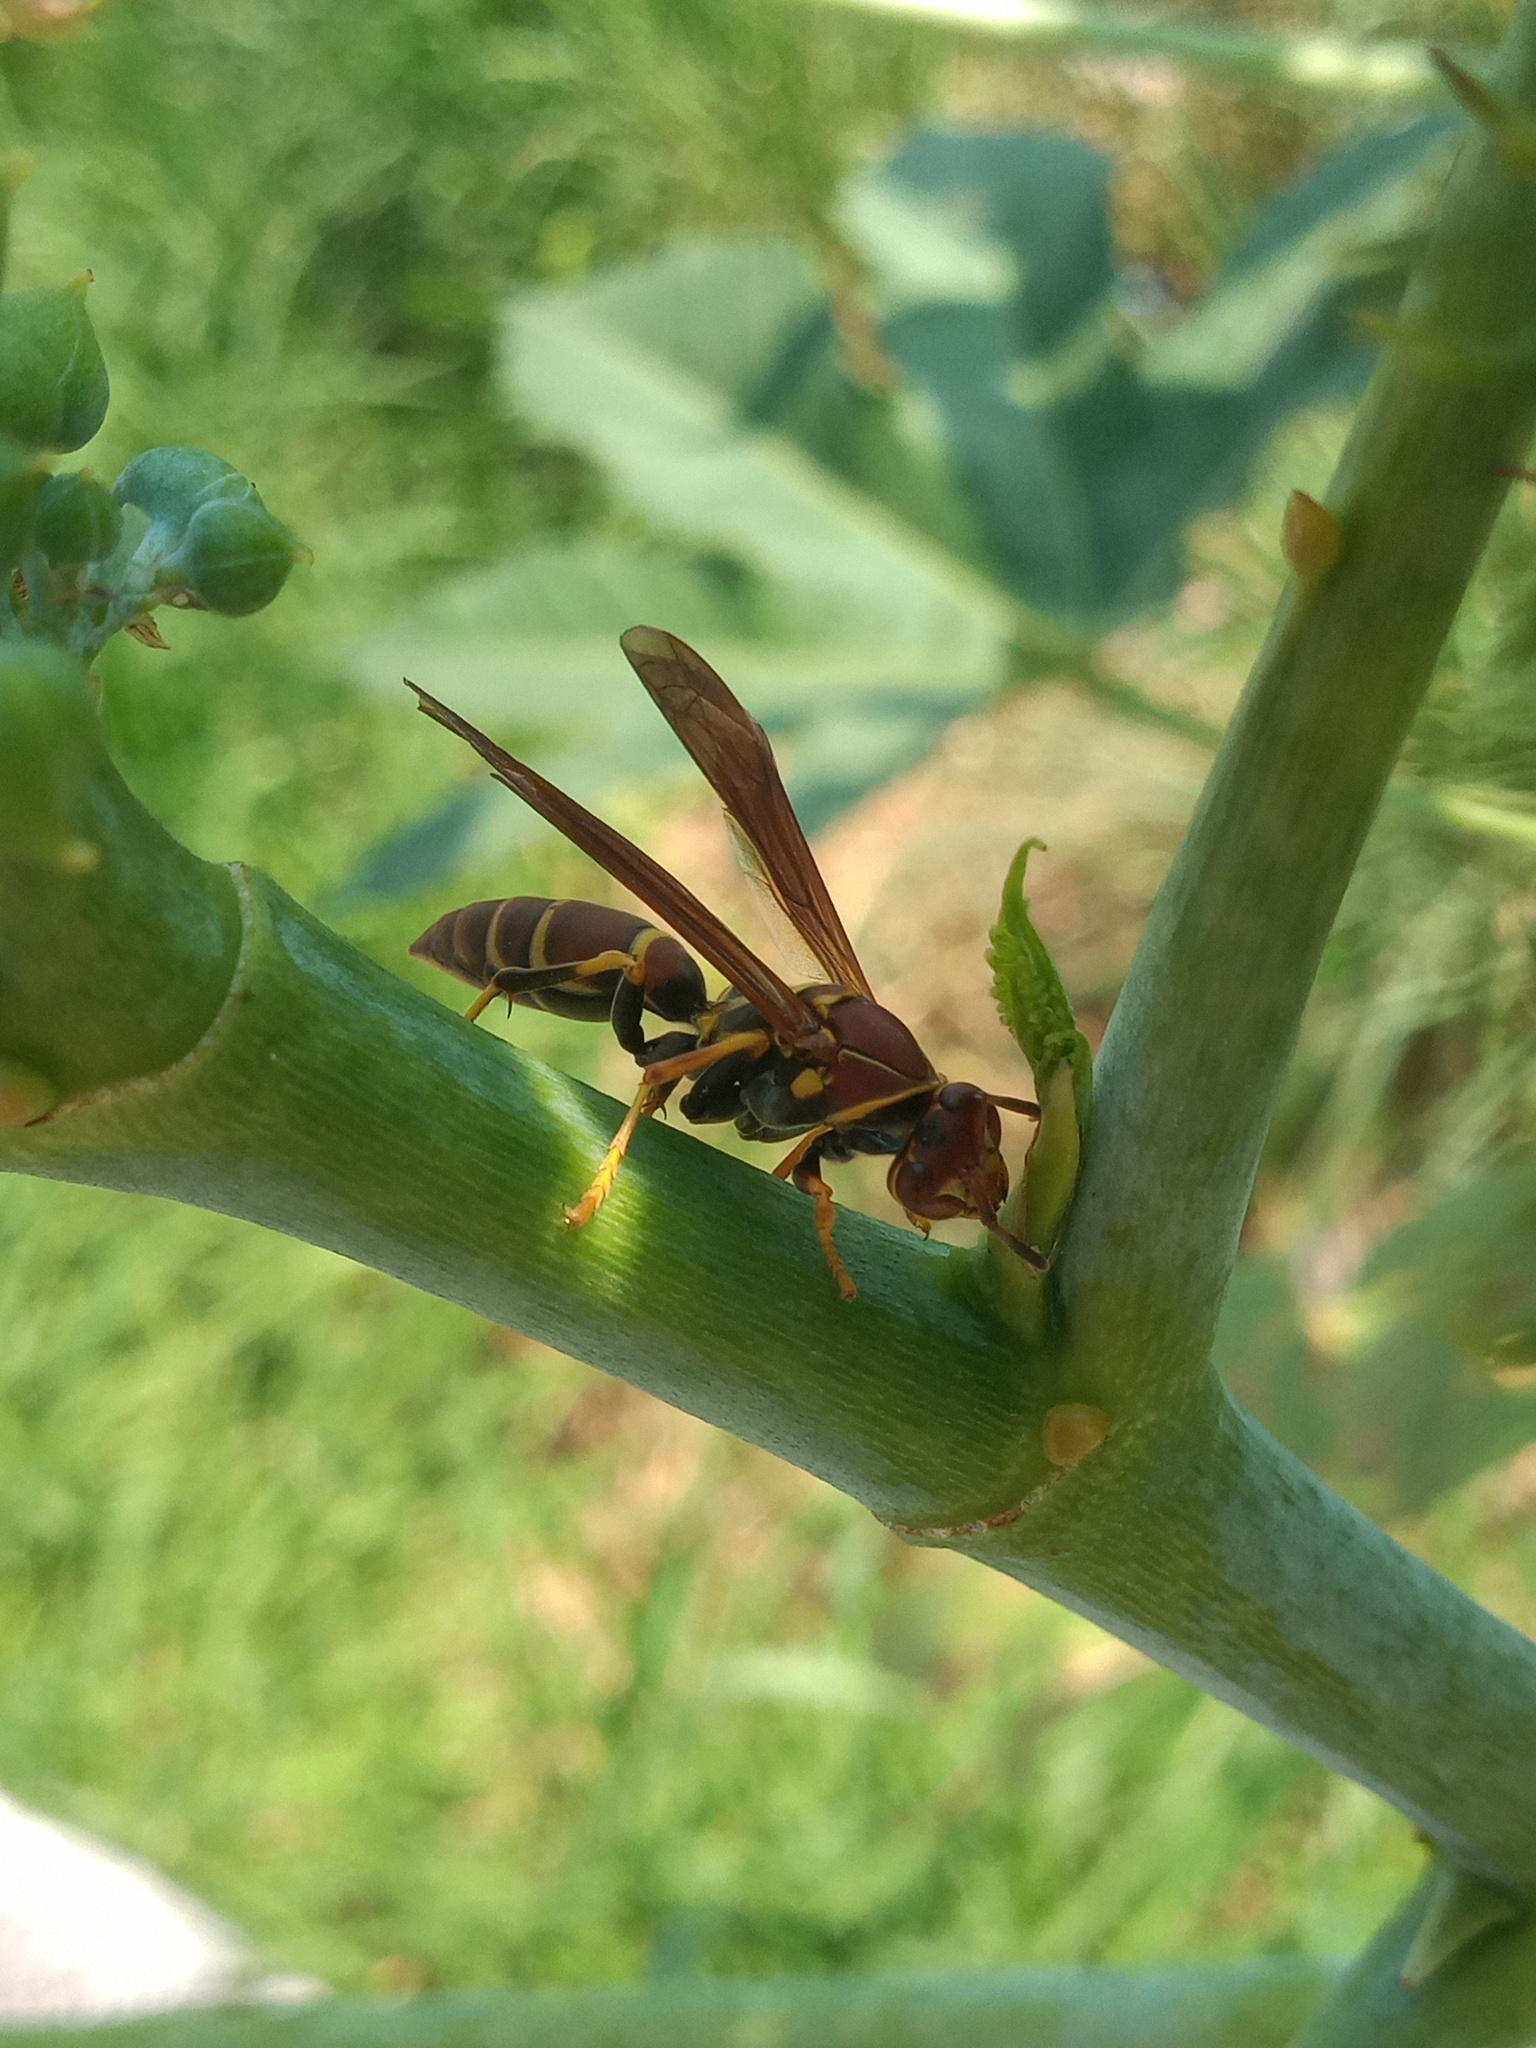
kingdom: Animalia
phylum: Arthropoda
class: Insecta
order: Hymenoptera
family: Eumenidae
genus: Polistes
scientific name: Polistes instabilis
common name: Unstable paper wasp
